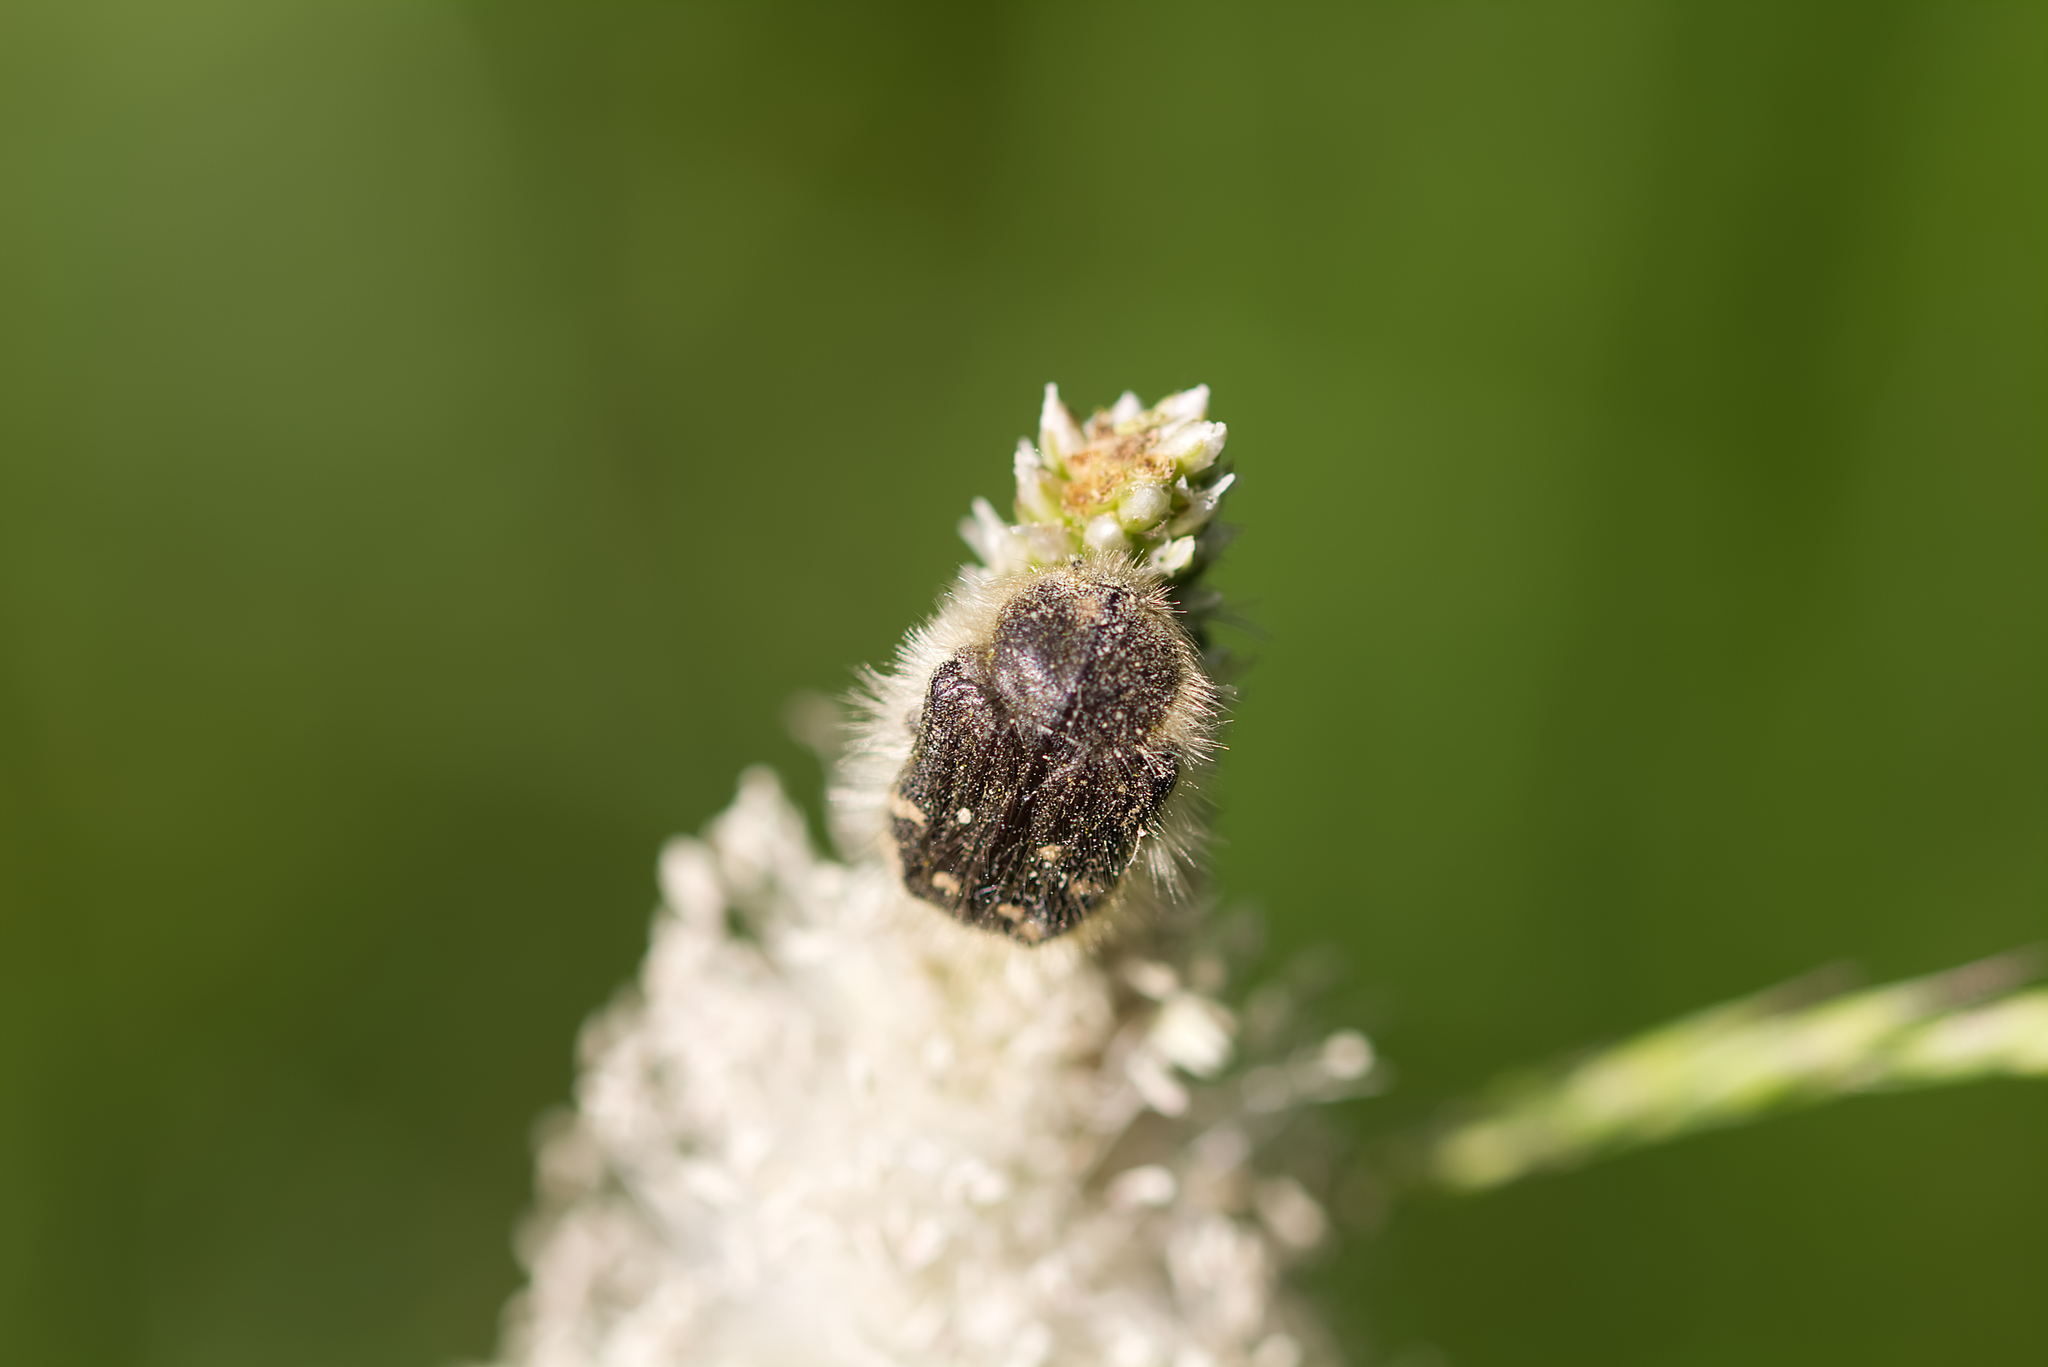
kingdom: Animalia
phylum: Arthropoda
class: Insecta
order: Coleoptera
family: Scarabaeidae
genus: Tropinota
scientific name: Tropinota hirta
